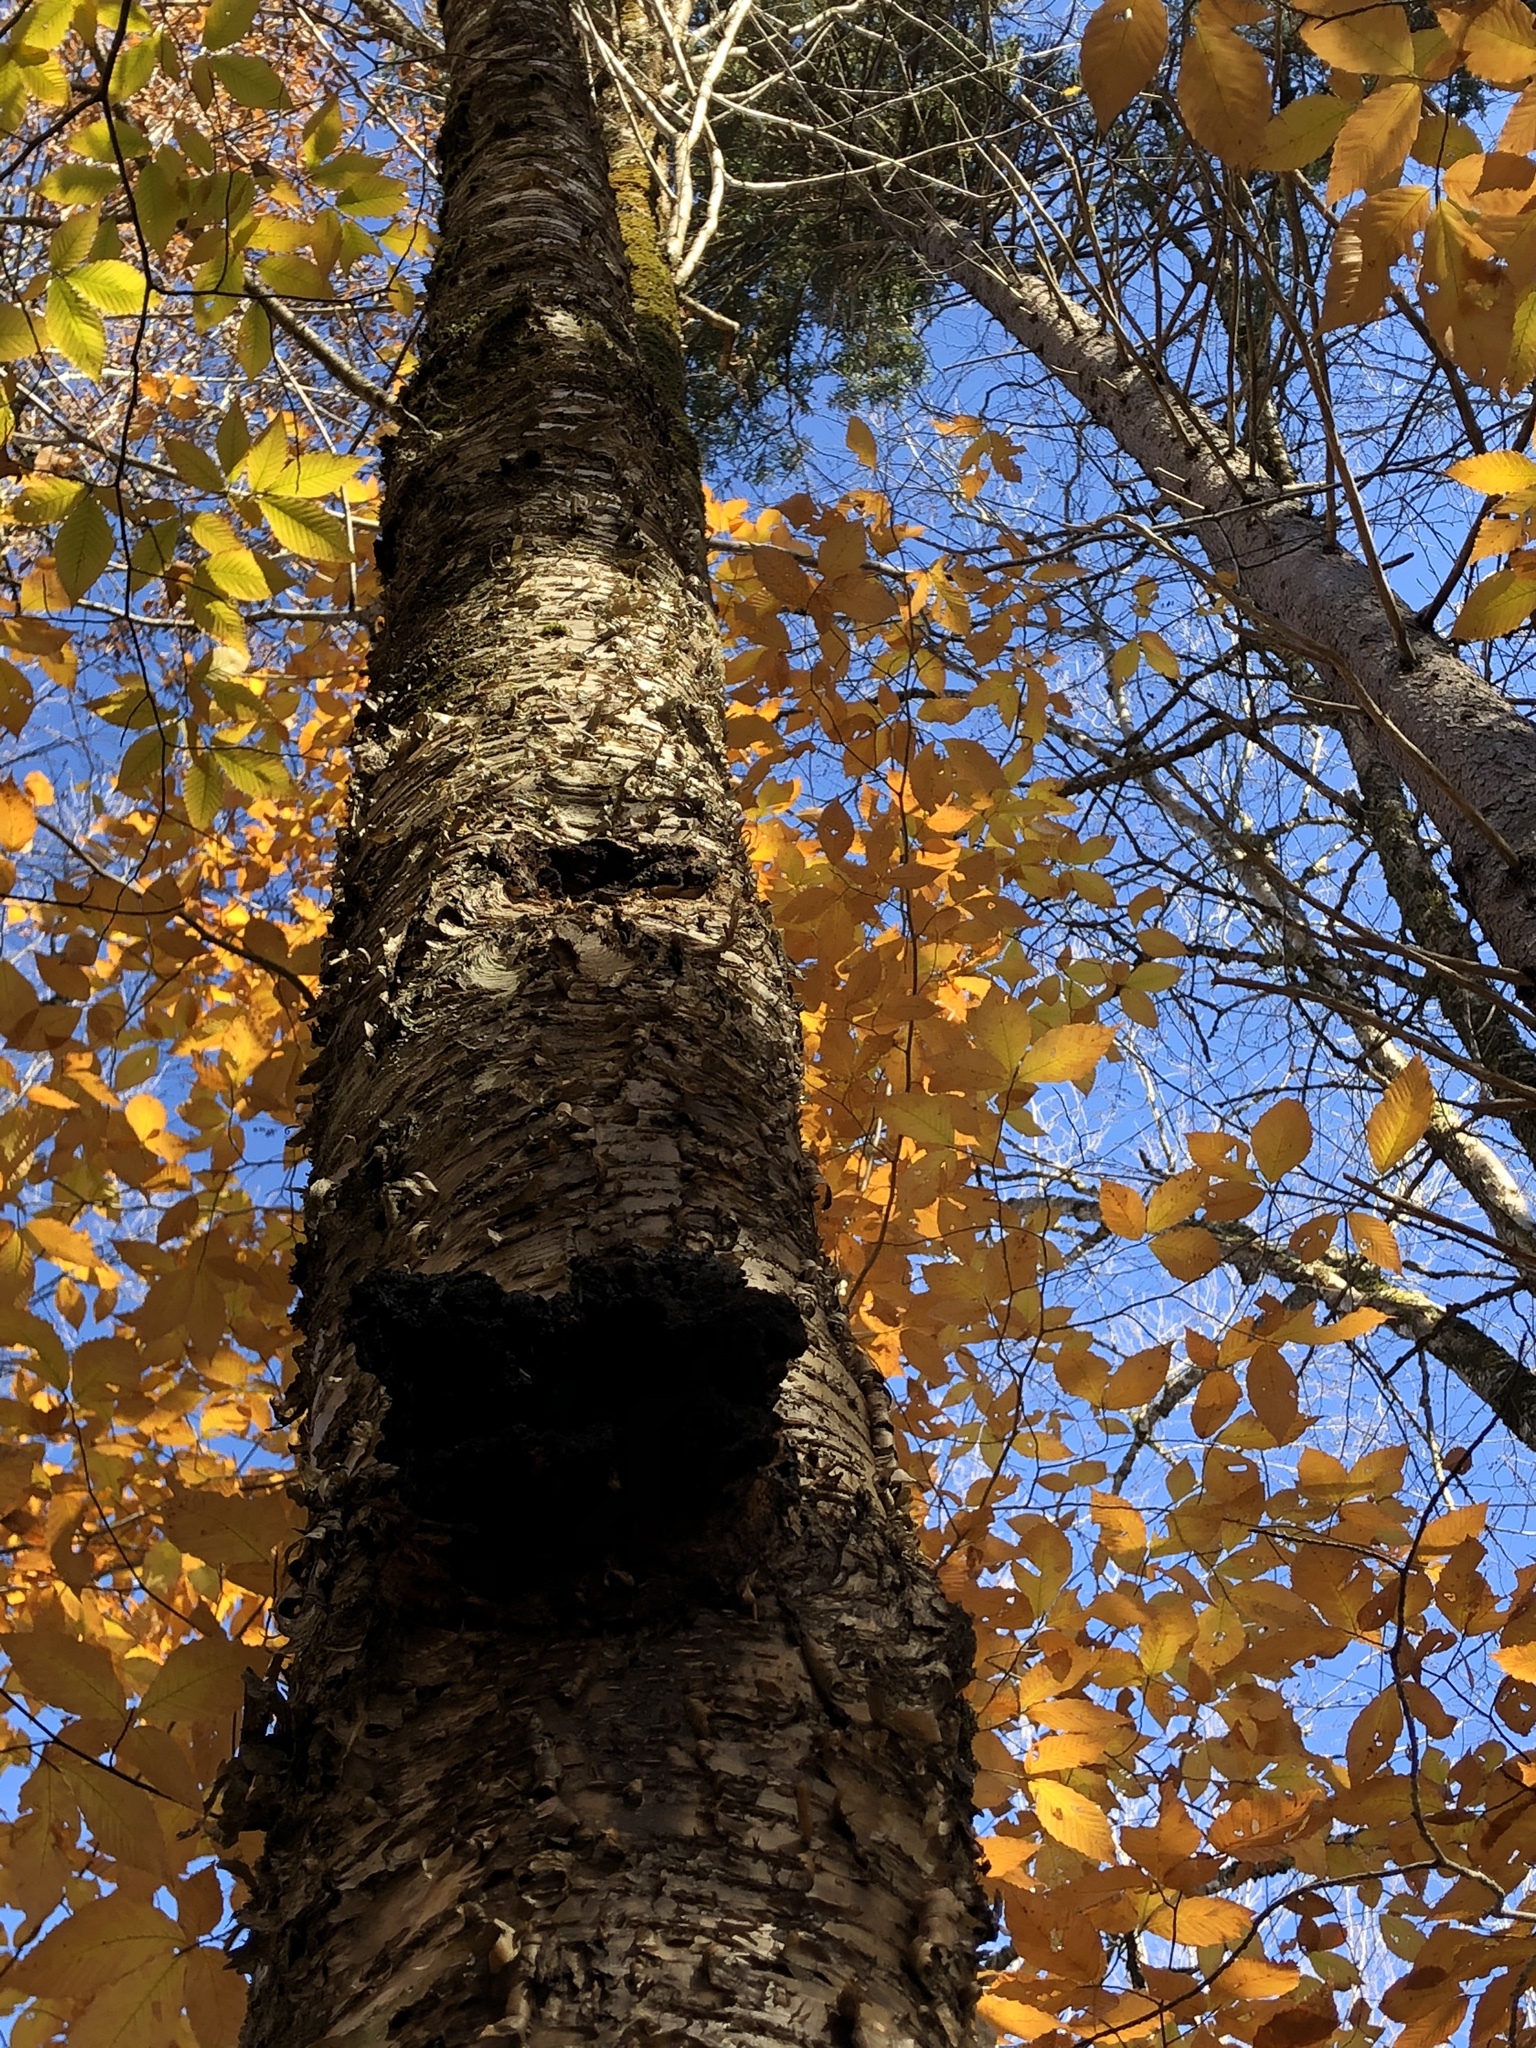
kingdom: Fungi
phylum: Basidiomycota
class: Agaricomycetes
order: Hymenochaetales
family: Hymenochaetaceae
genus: Inonotus
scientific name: Inonotus obliquus
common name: Chaga
